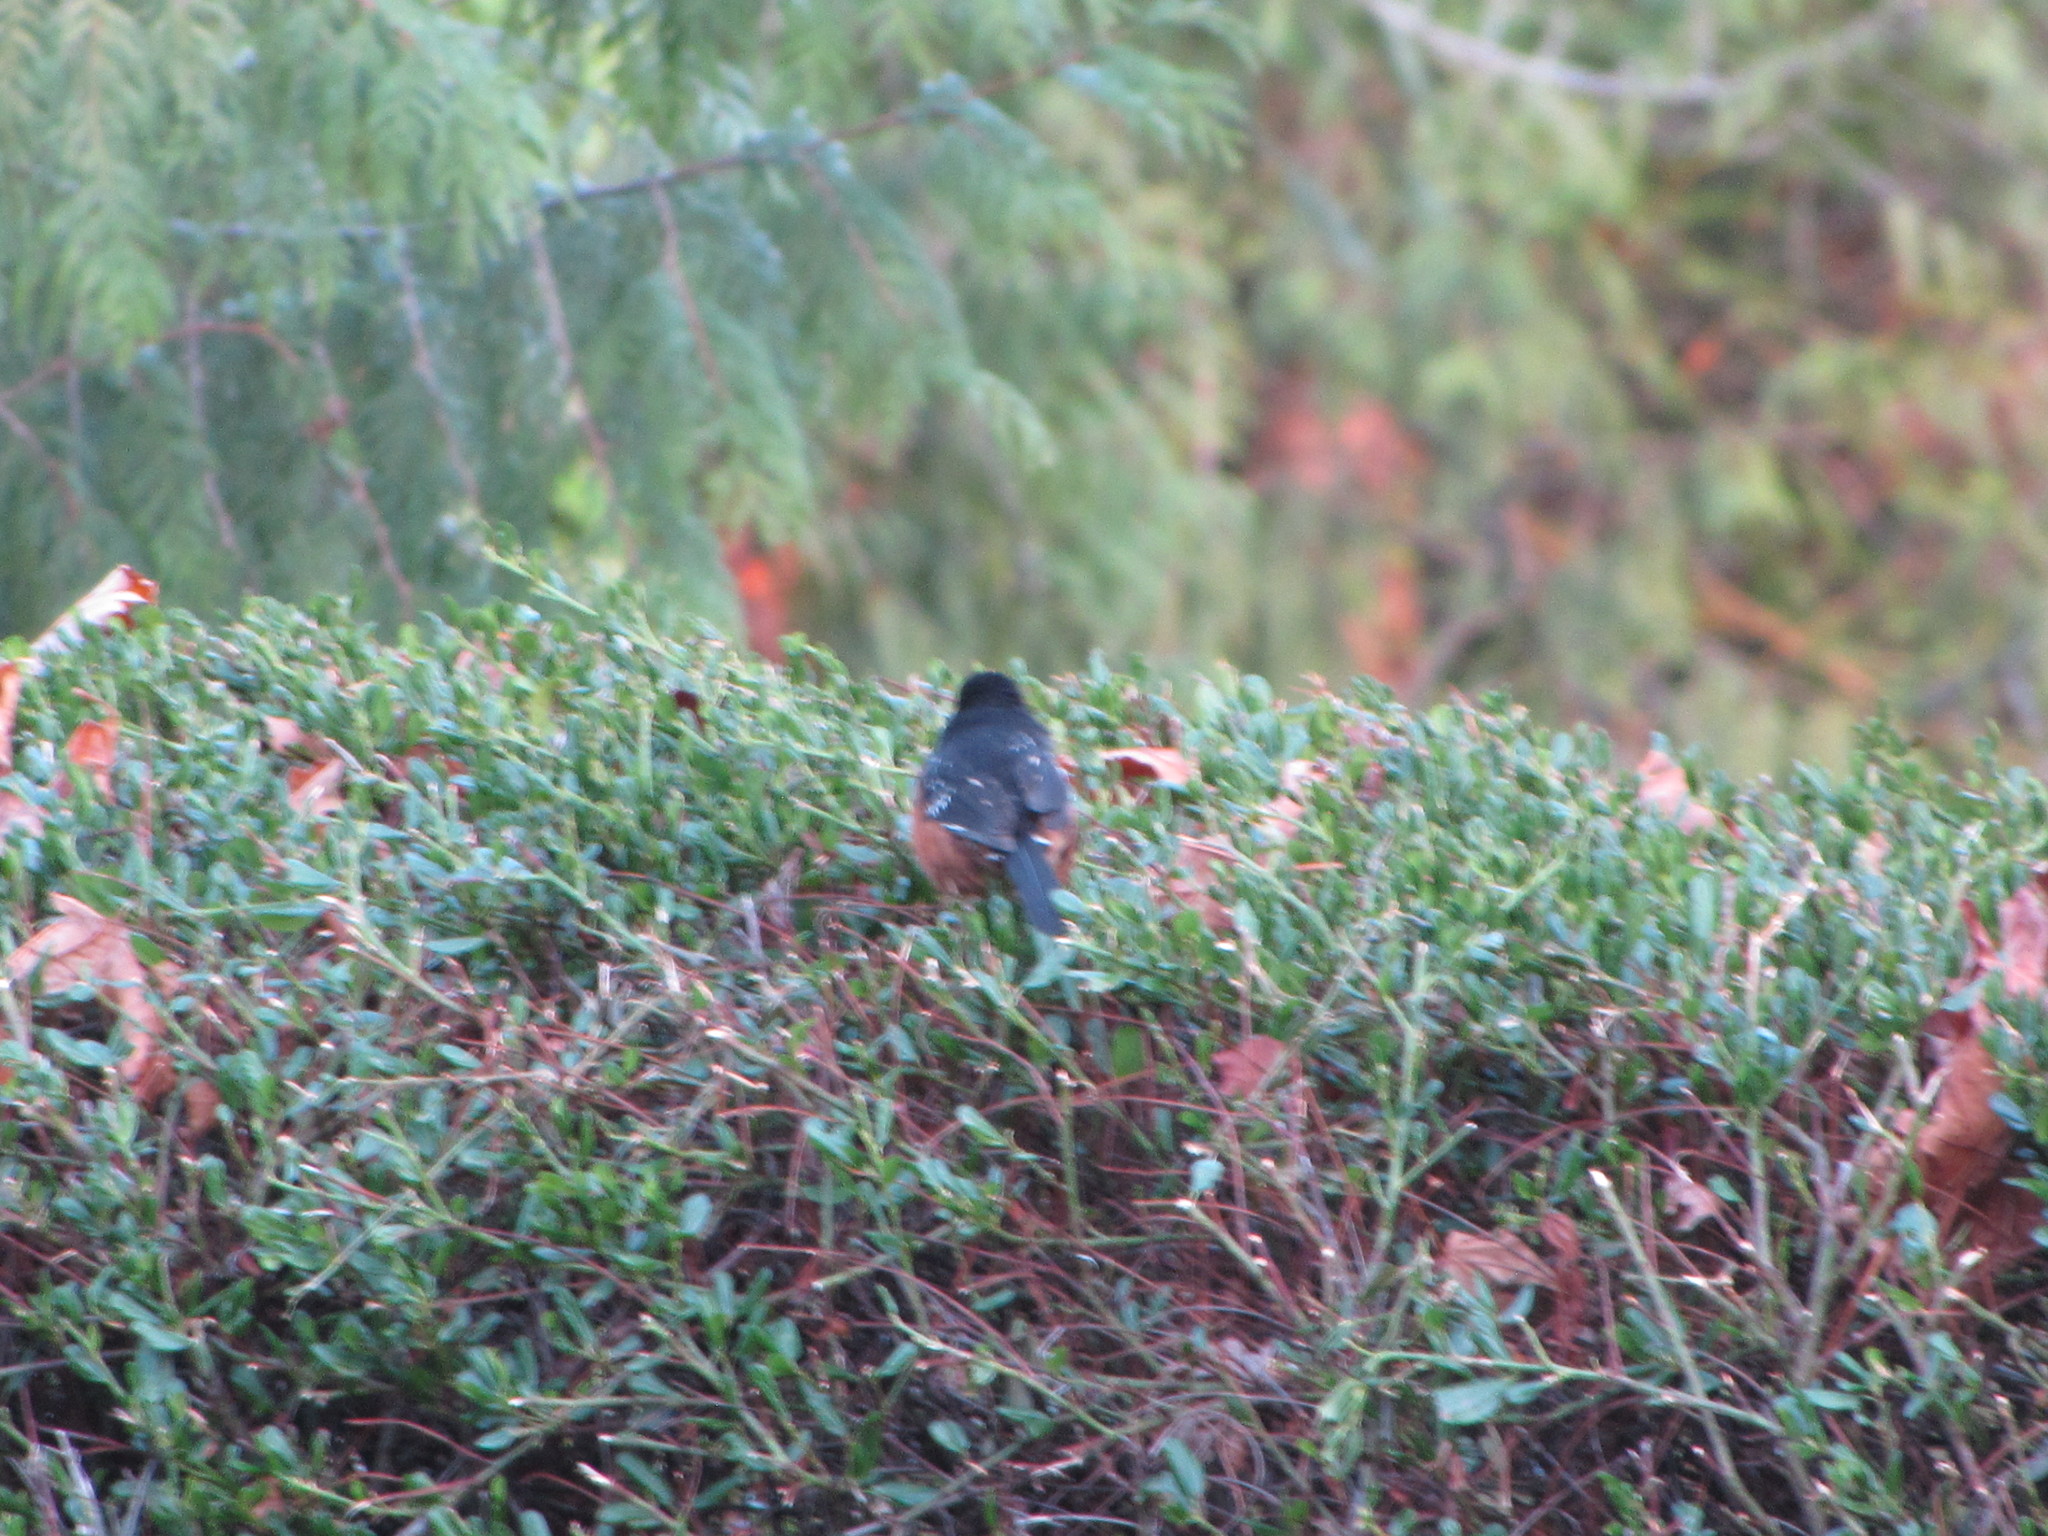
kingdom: Animalia
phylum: Chordata
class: Aves
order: Passeriformes
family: Passerellidae
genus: Pipilo
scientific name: Pipilo maculatus
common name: Spotted towhee
